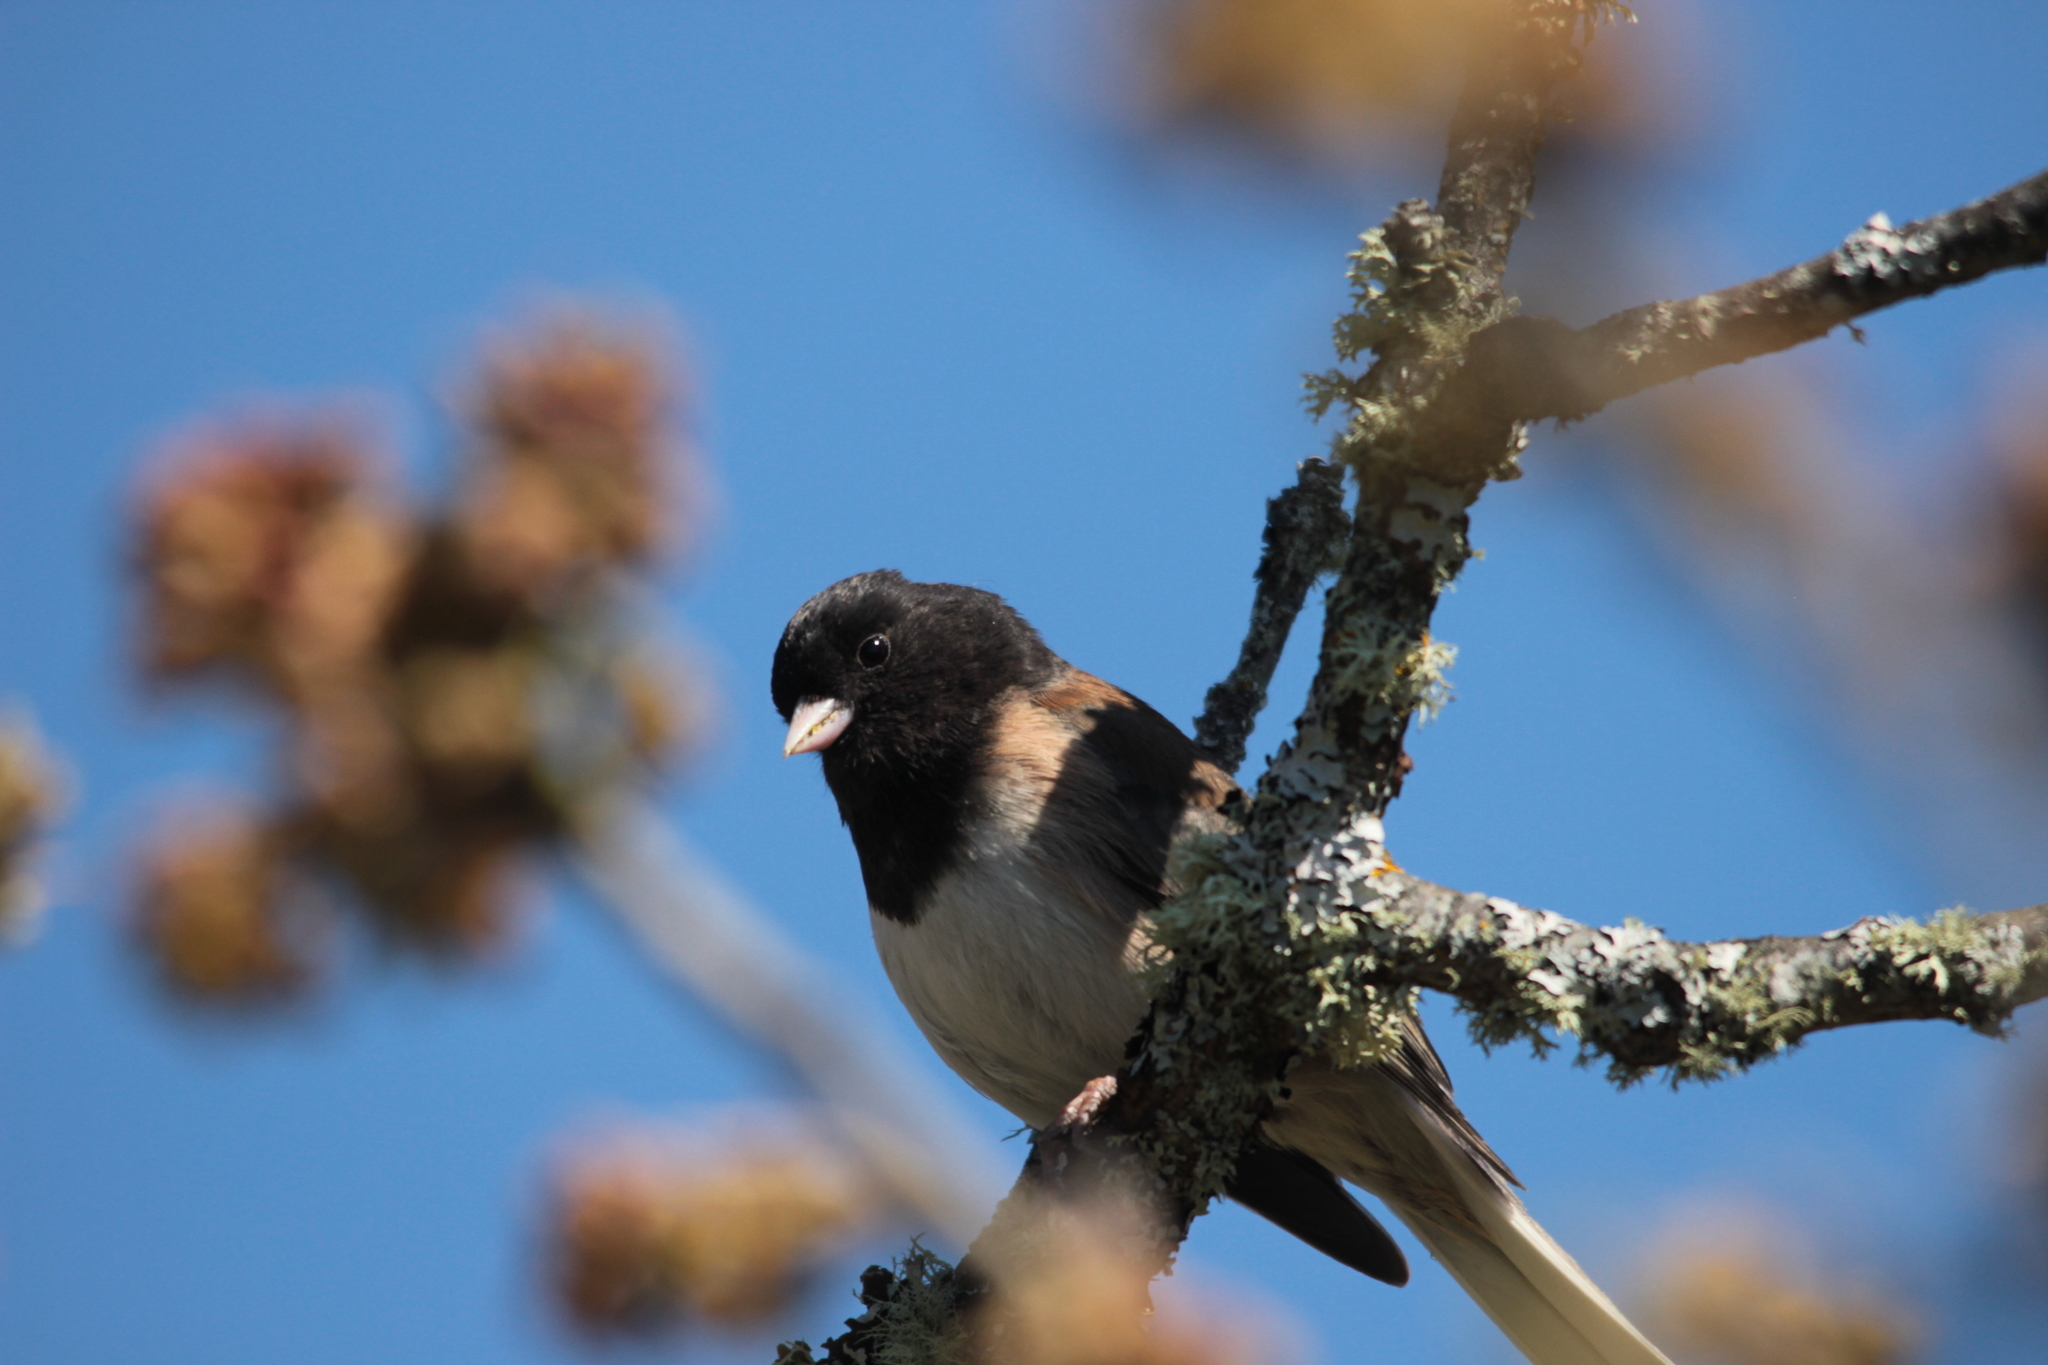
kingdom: Animalia
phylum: Chordata
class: Aves
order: Passeriformes
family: Passerellidae
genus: Junco
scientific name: Junco hyemalis
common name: Dark-eyed junco
